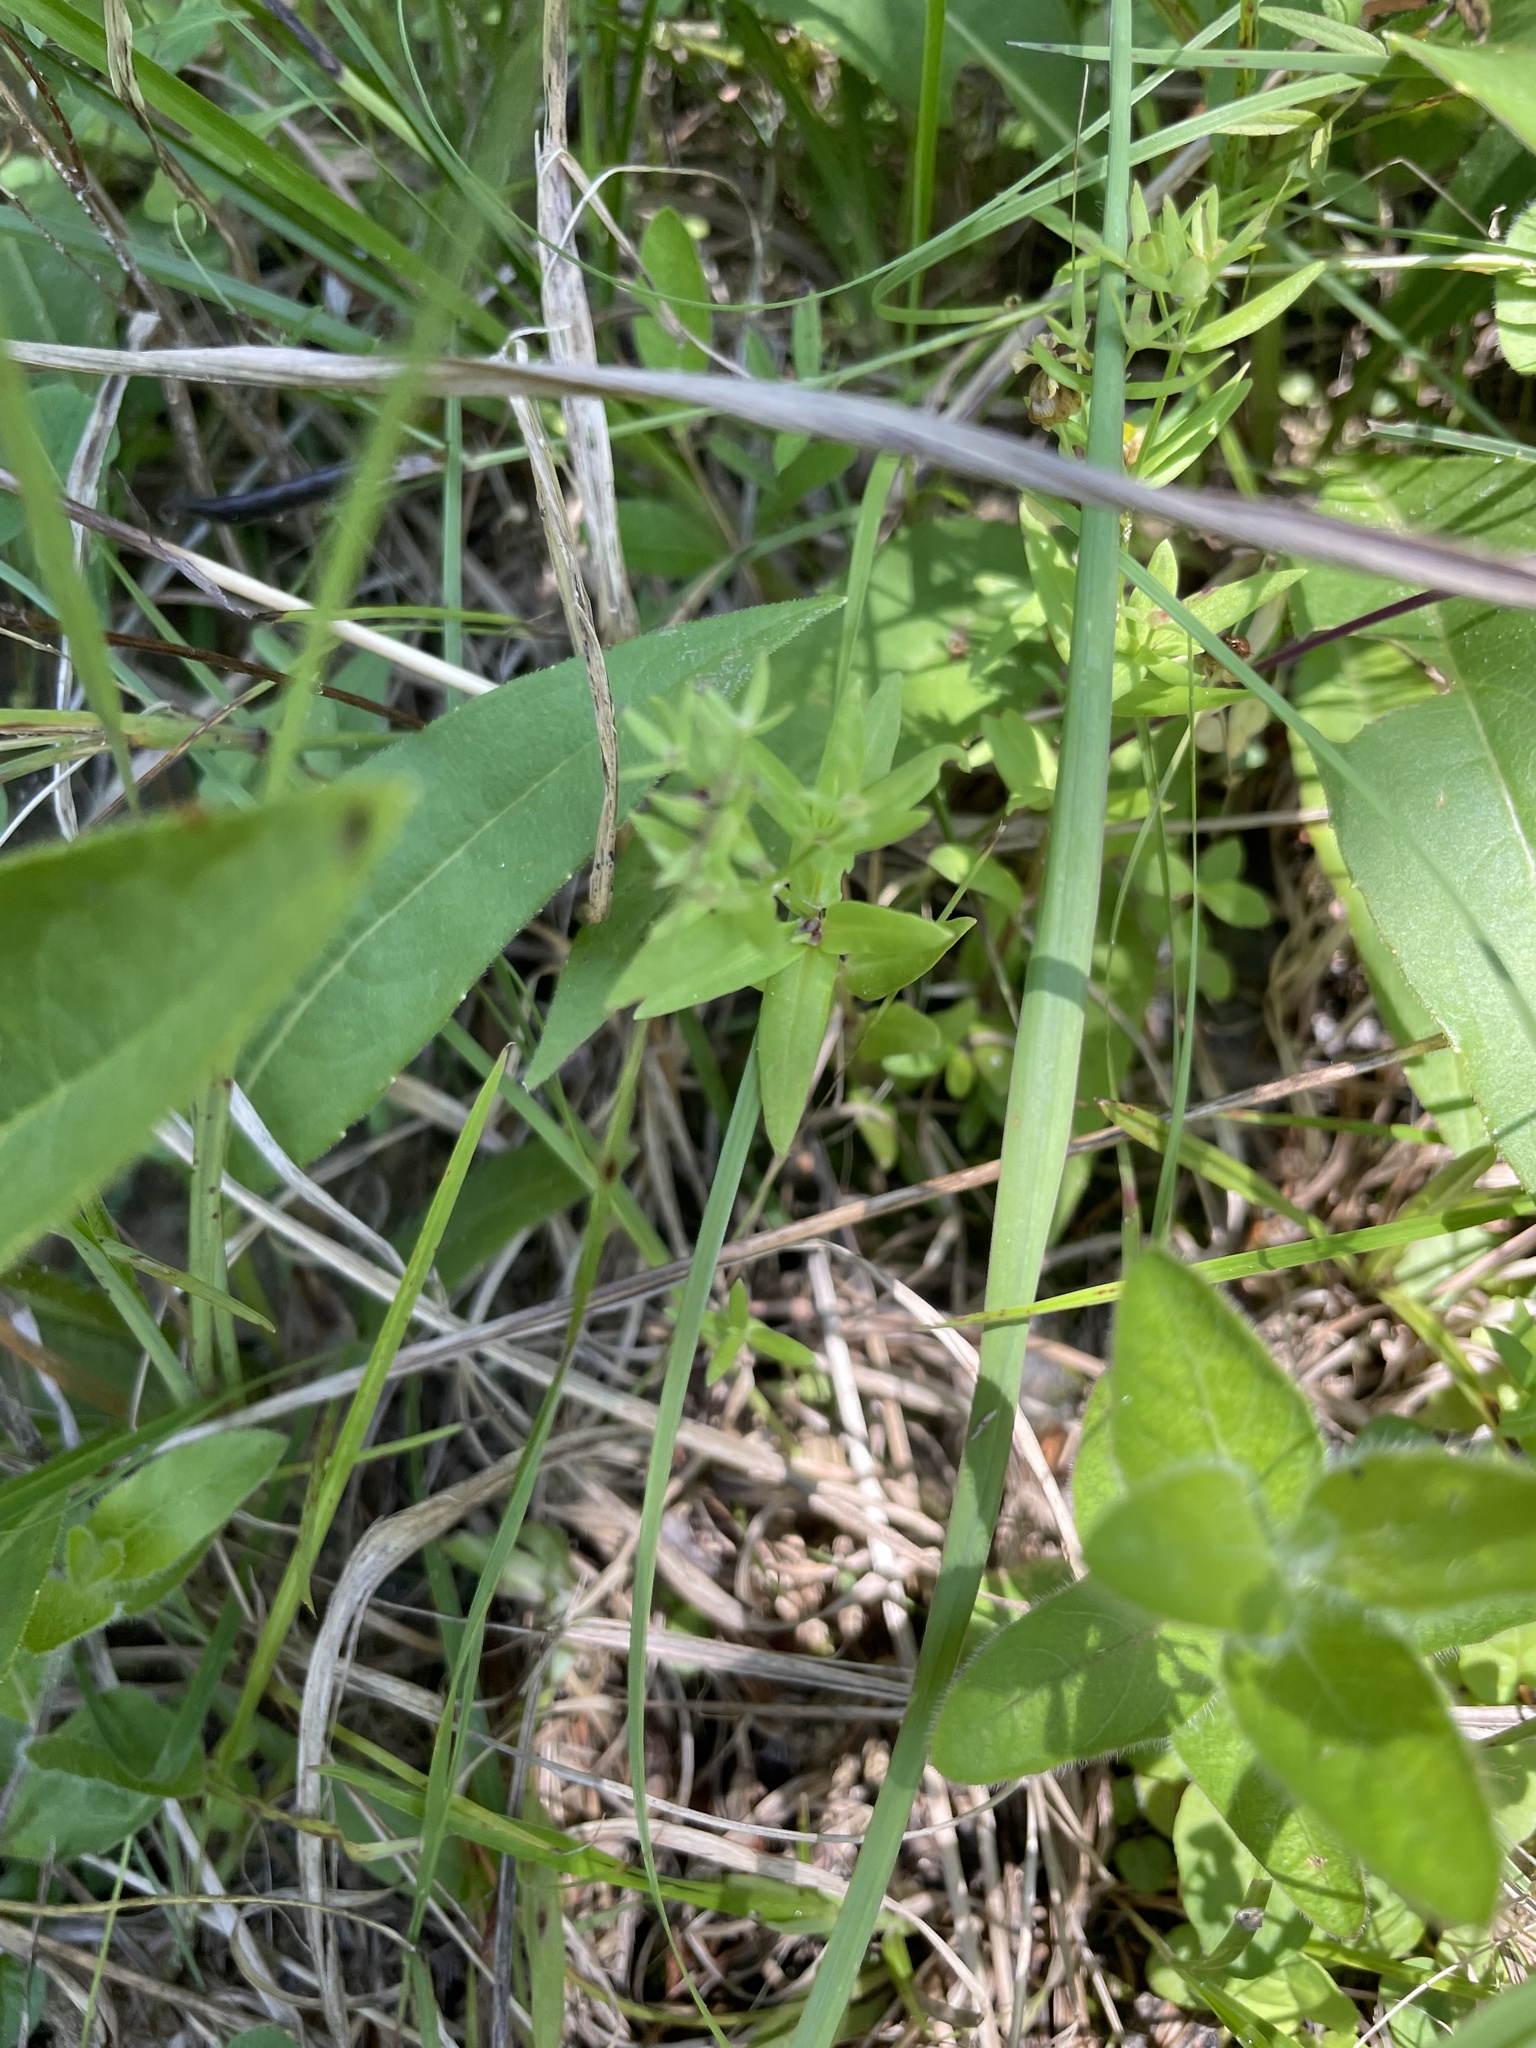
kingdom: Plantae
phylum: Tracheophyta
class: Magnoliopsida
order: Gentianales
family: Rubiaceae
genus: Houstonia
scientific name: Houstonia purpurea
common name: Summer bluet
